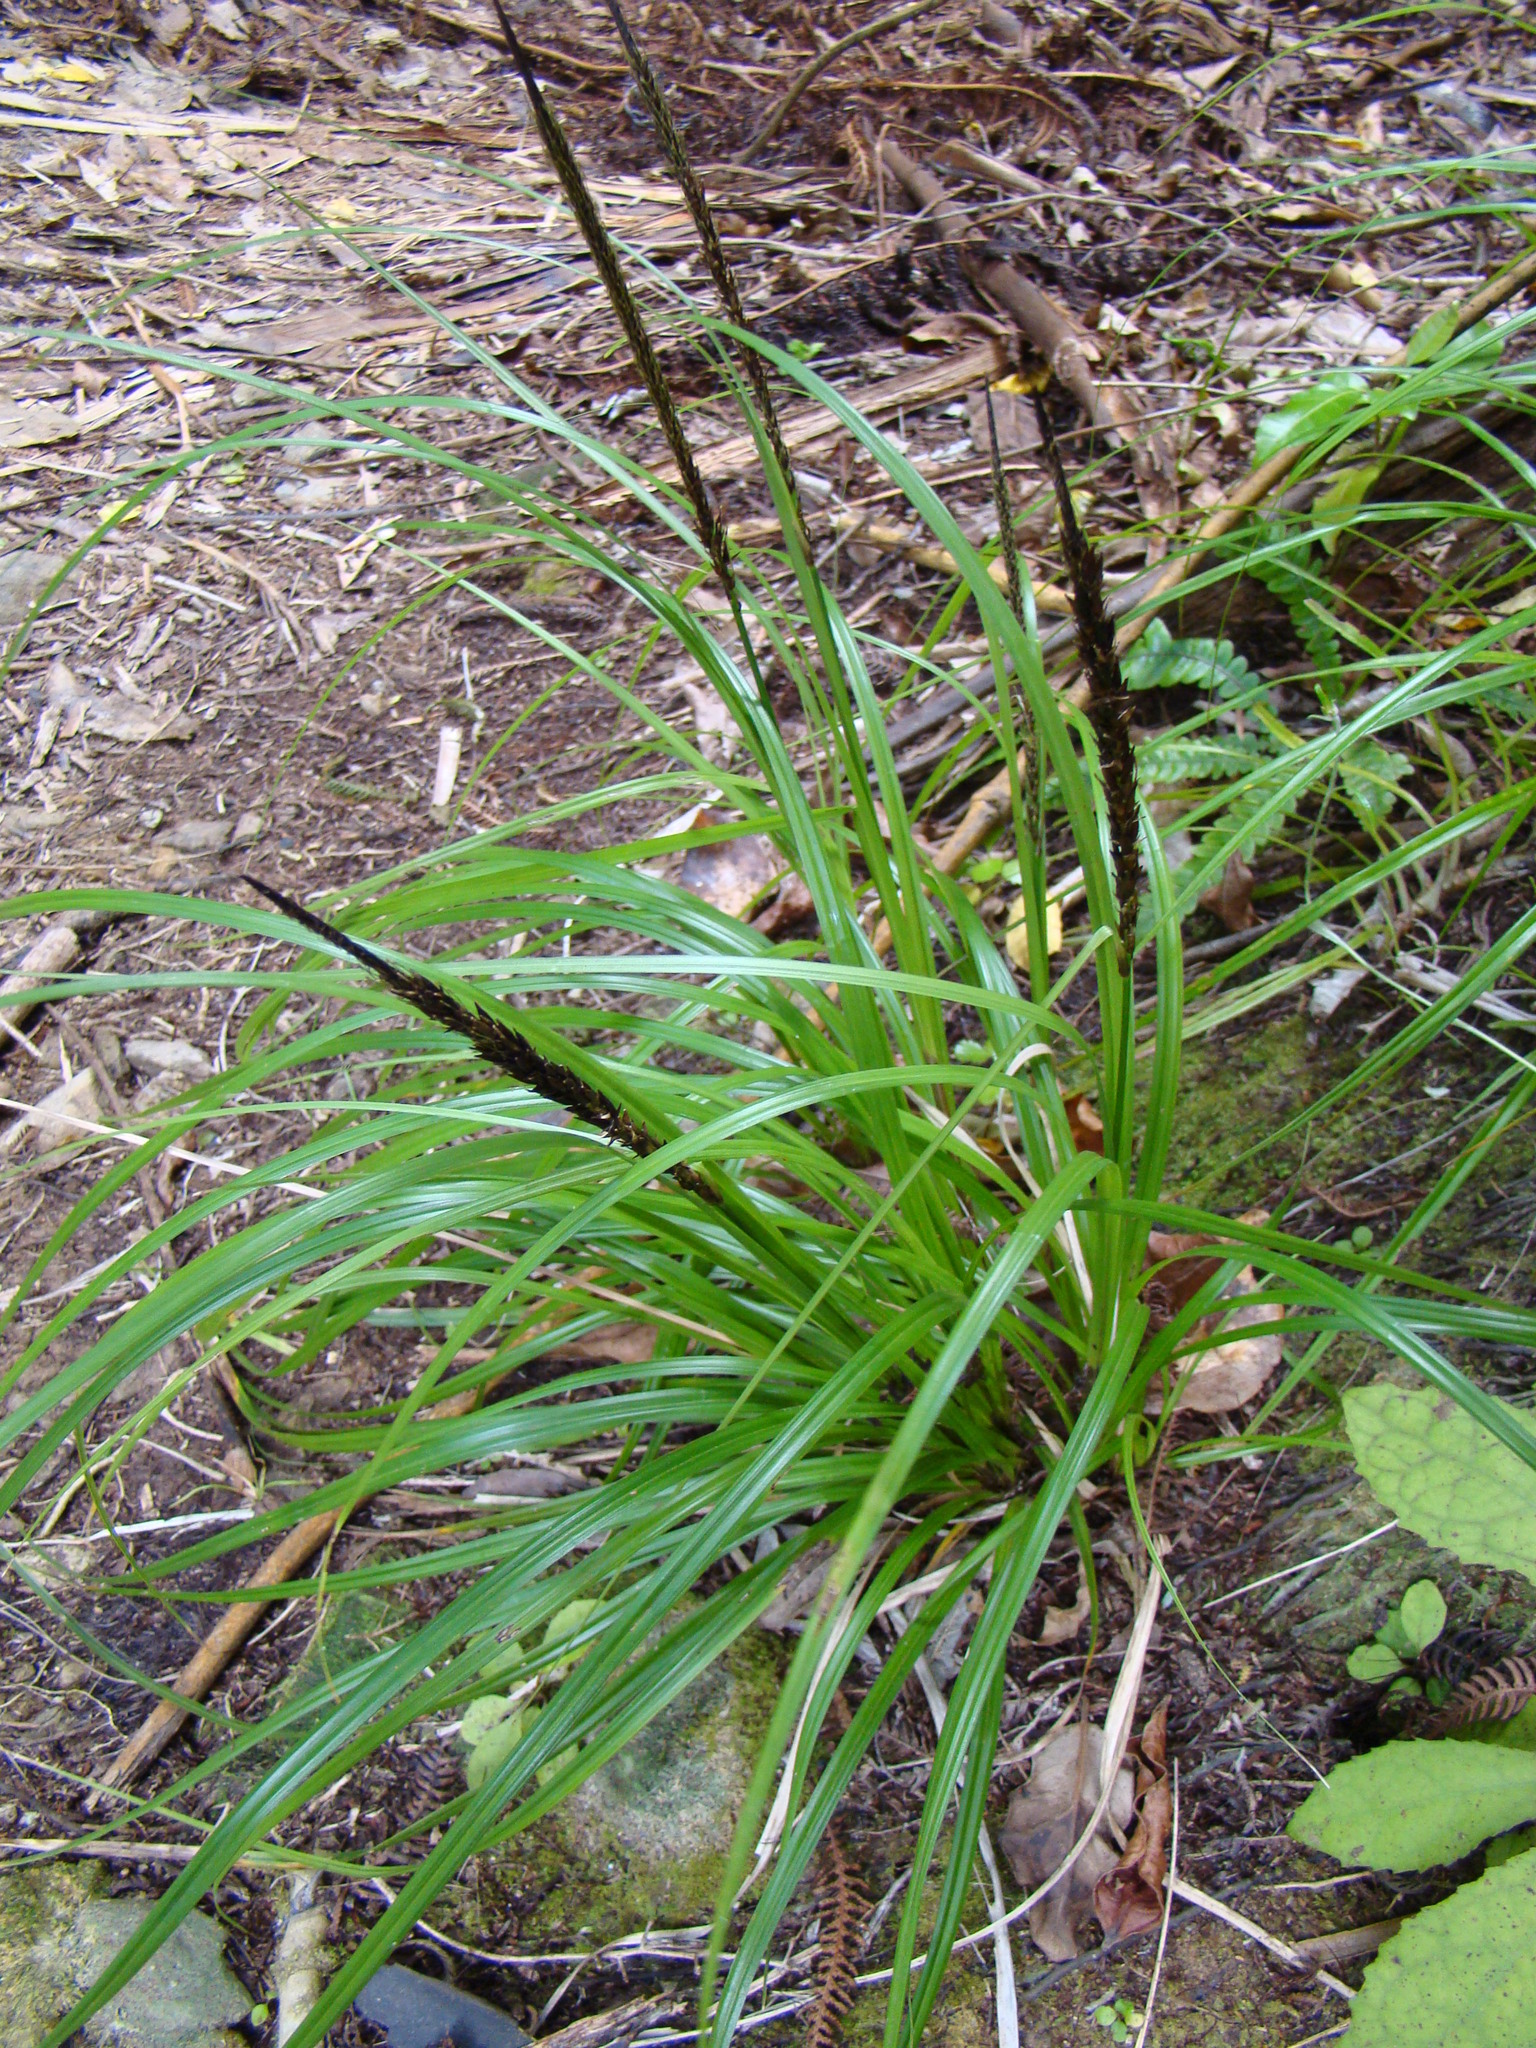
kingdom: Plantae
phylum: Tracheophyta
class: Liliopsida
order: Poales
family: Cyperaceae
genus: Carex
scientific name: Carex uncinata
